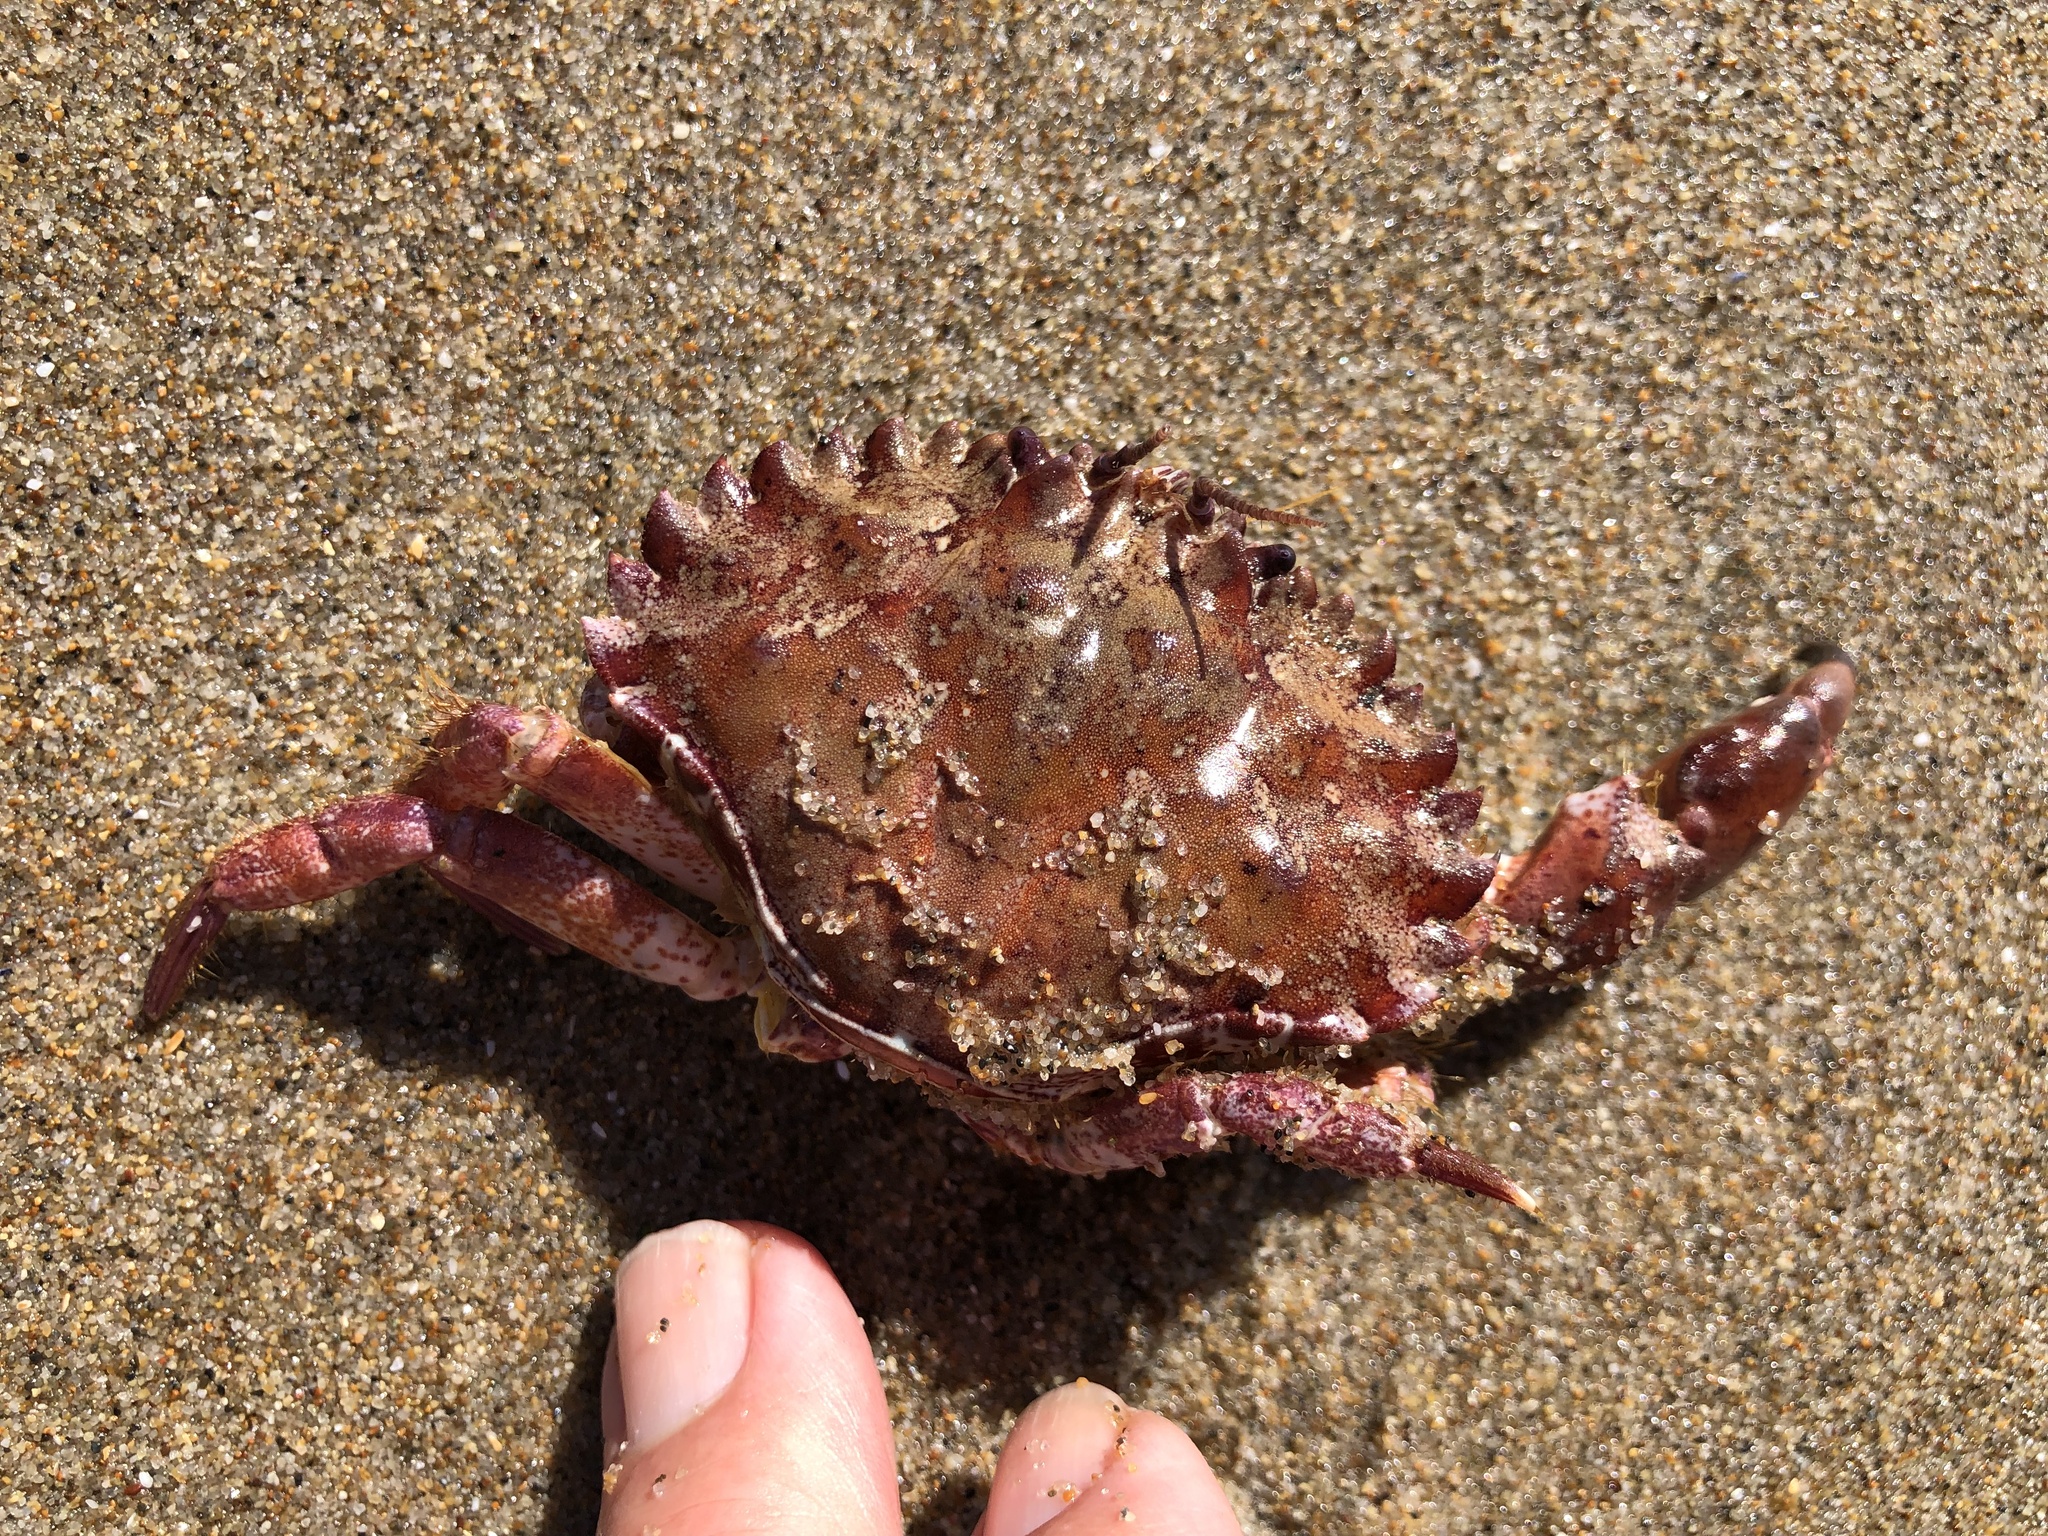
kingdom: Animalia
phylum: Arthropoda
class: Malacostraca
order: Decapoda
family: Cancridae
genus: Romaleon
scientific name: Romaleon antennarium
